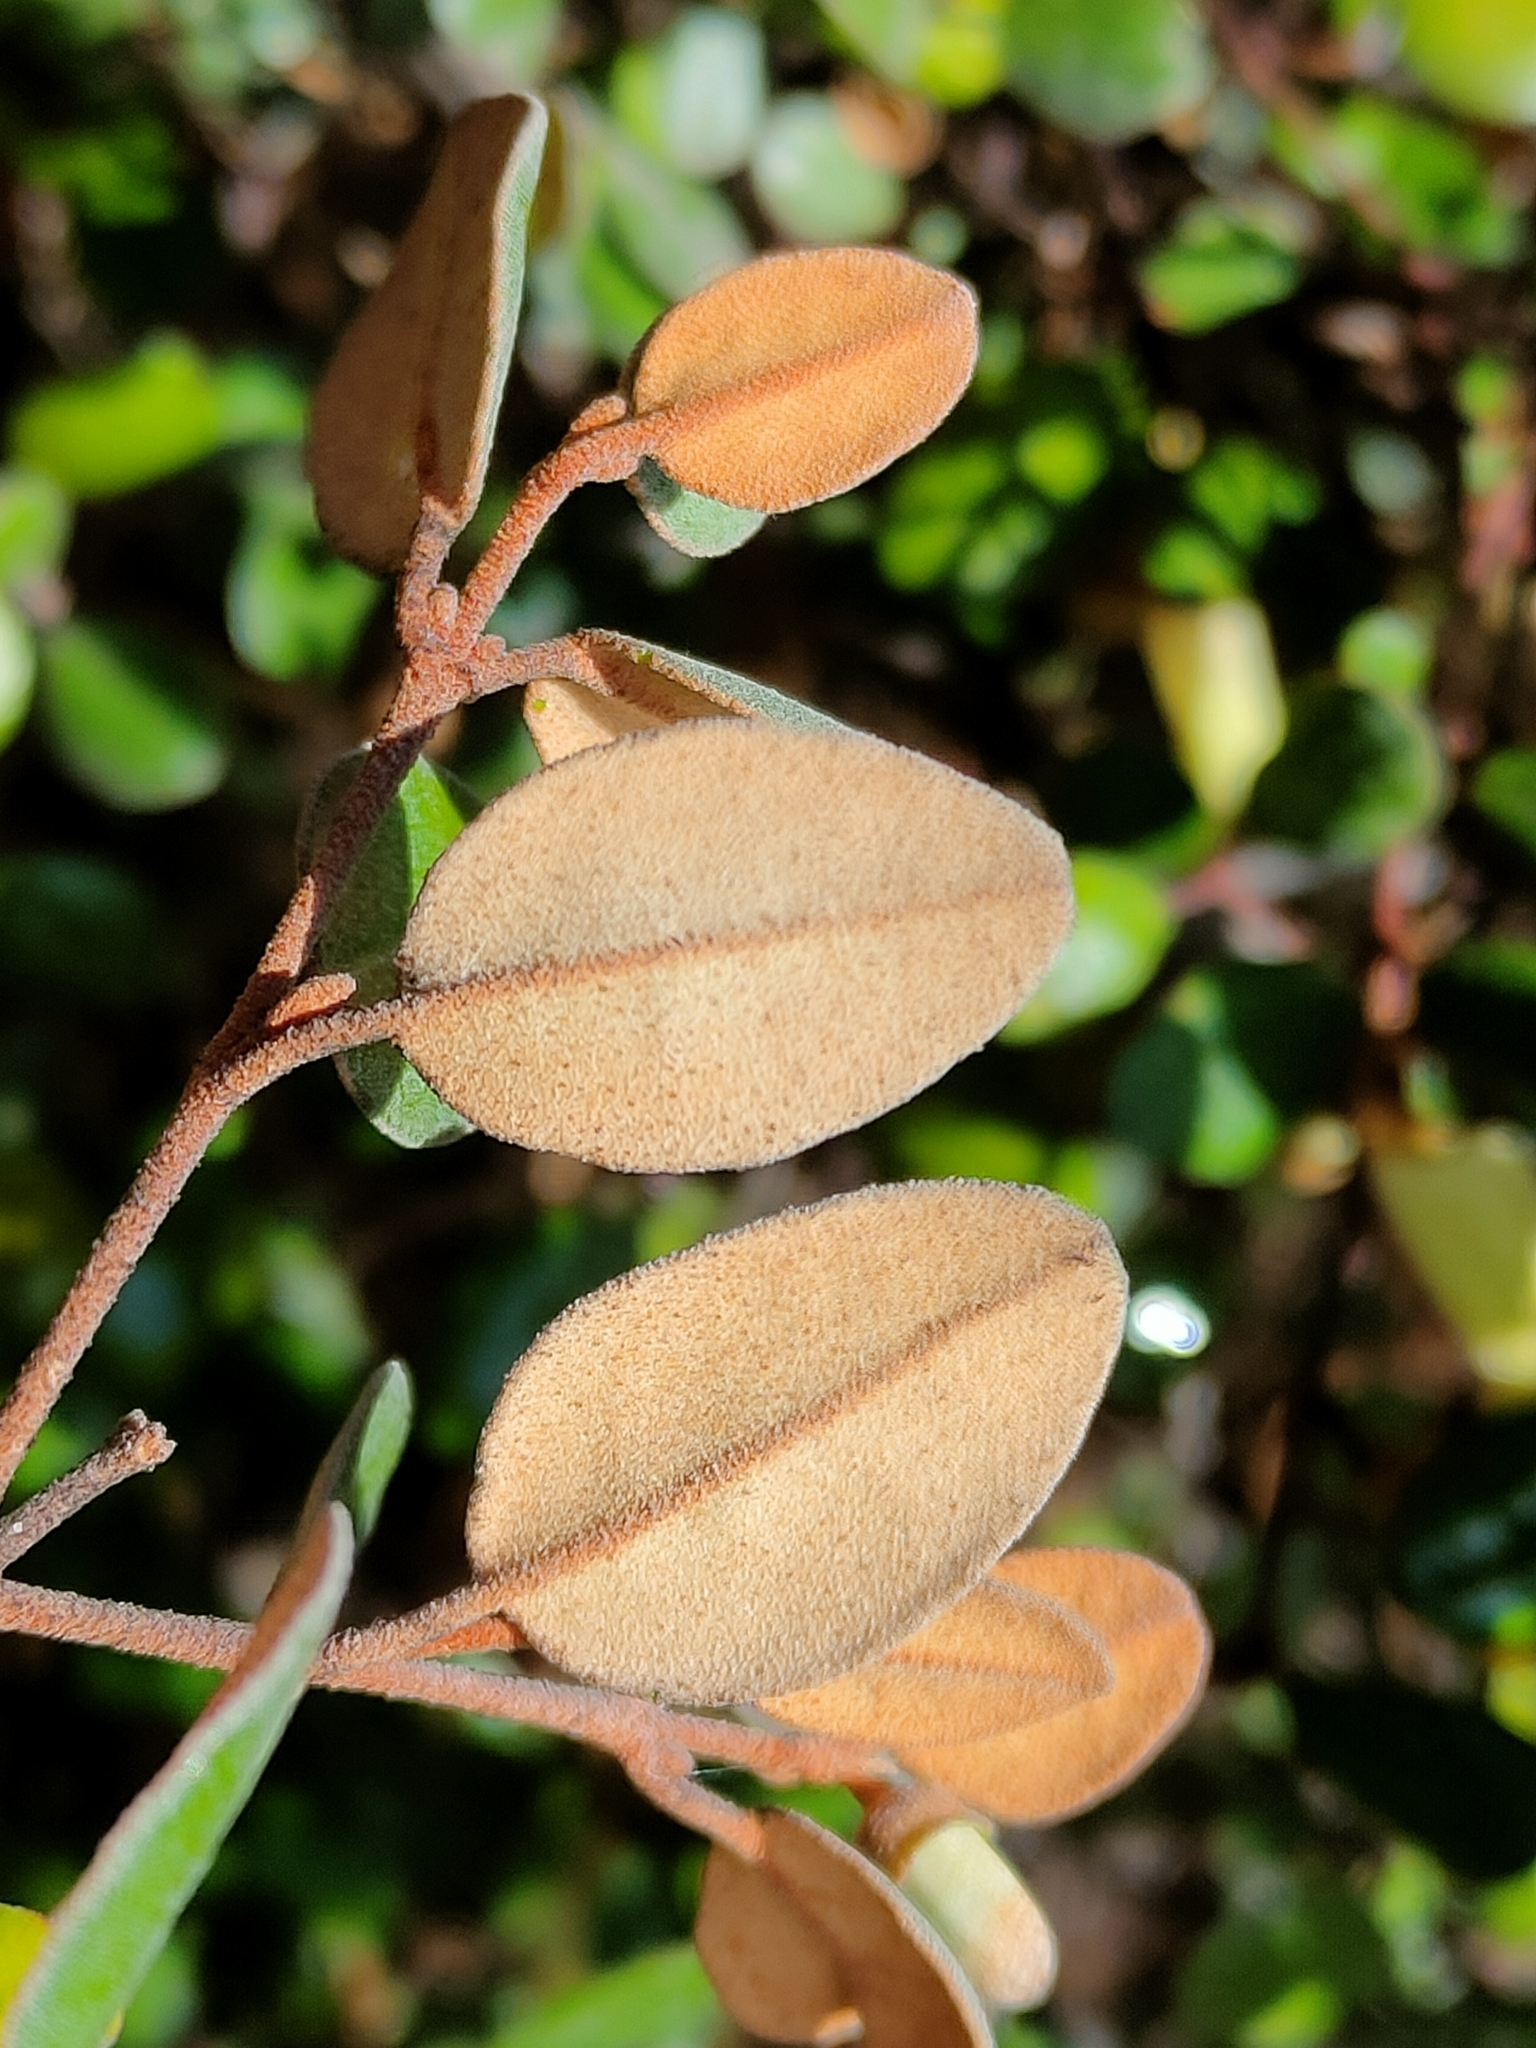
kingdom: Plantae
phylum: Tracheophyta
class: Magnoliopsida
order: Sapindales
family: Rutaceae
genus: Correa
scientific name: Correa backhouseana
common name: Tasmanian-fuchsia
